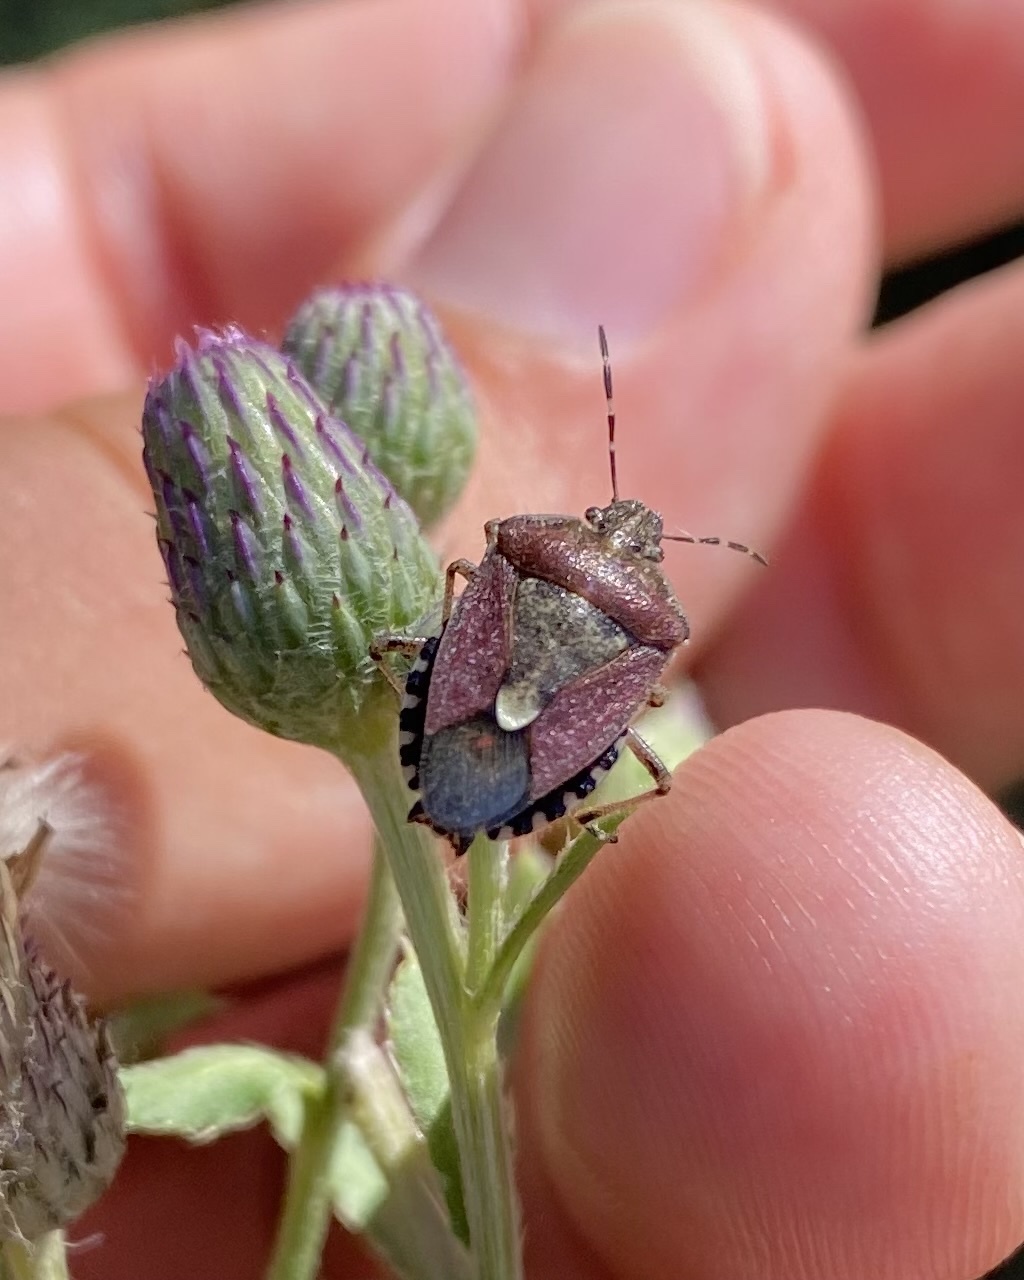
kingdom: Animalia
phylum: Arthropoda
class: Insecta
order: Hemiptera
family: Pentatomidae
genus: Dolycoris
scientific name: Dolycoris baccarum
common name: Sloe bug
